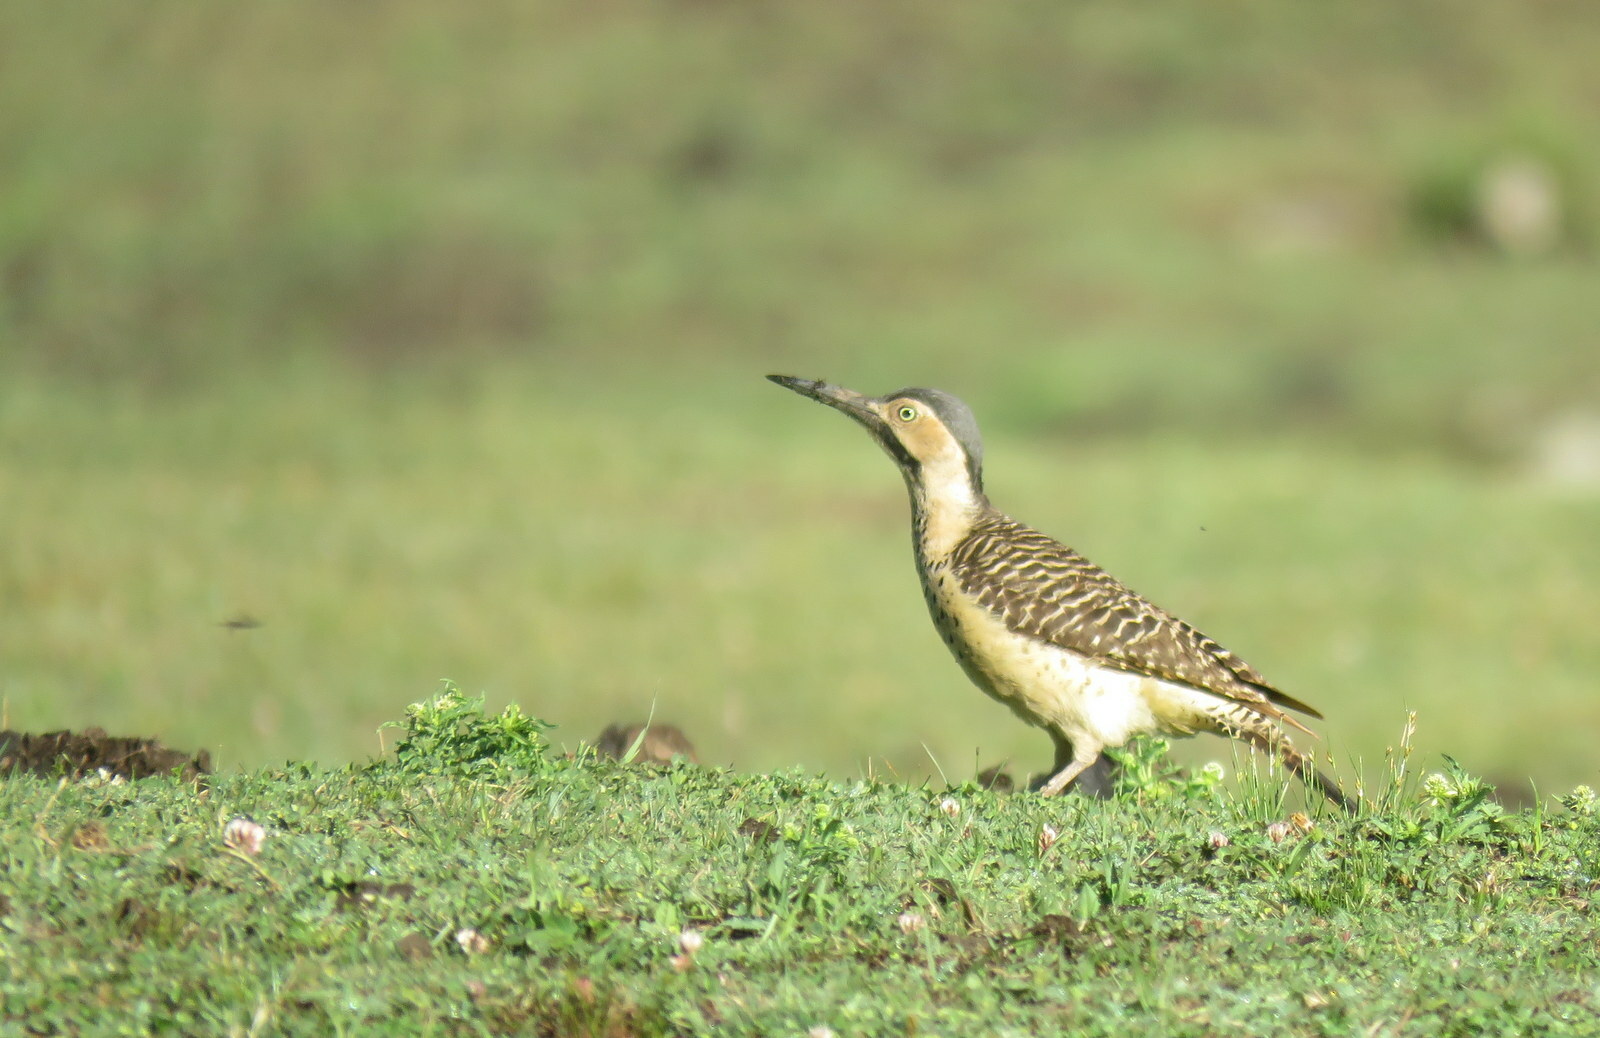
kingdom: Animalia
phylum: Chordata
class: Aves
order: Piciformes
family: Picidae
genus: Colaptes
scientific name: Colaptes rupicola
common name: Andean flicker
